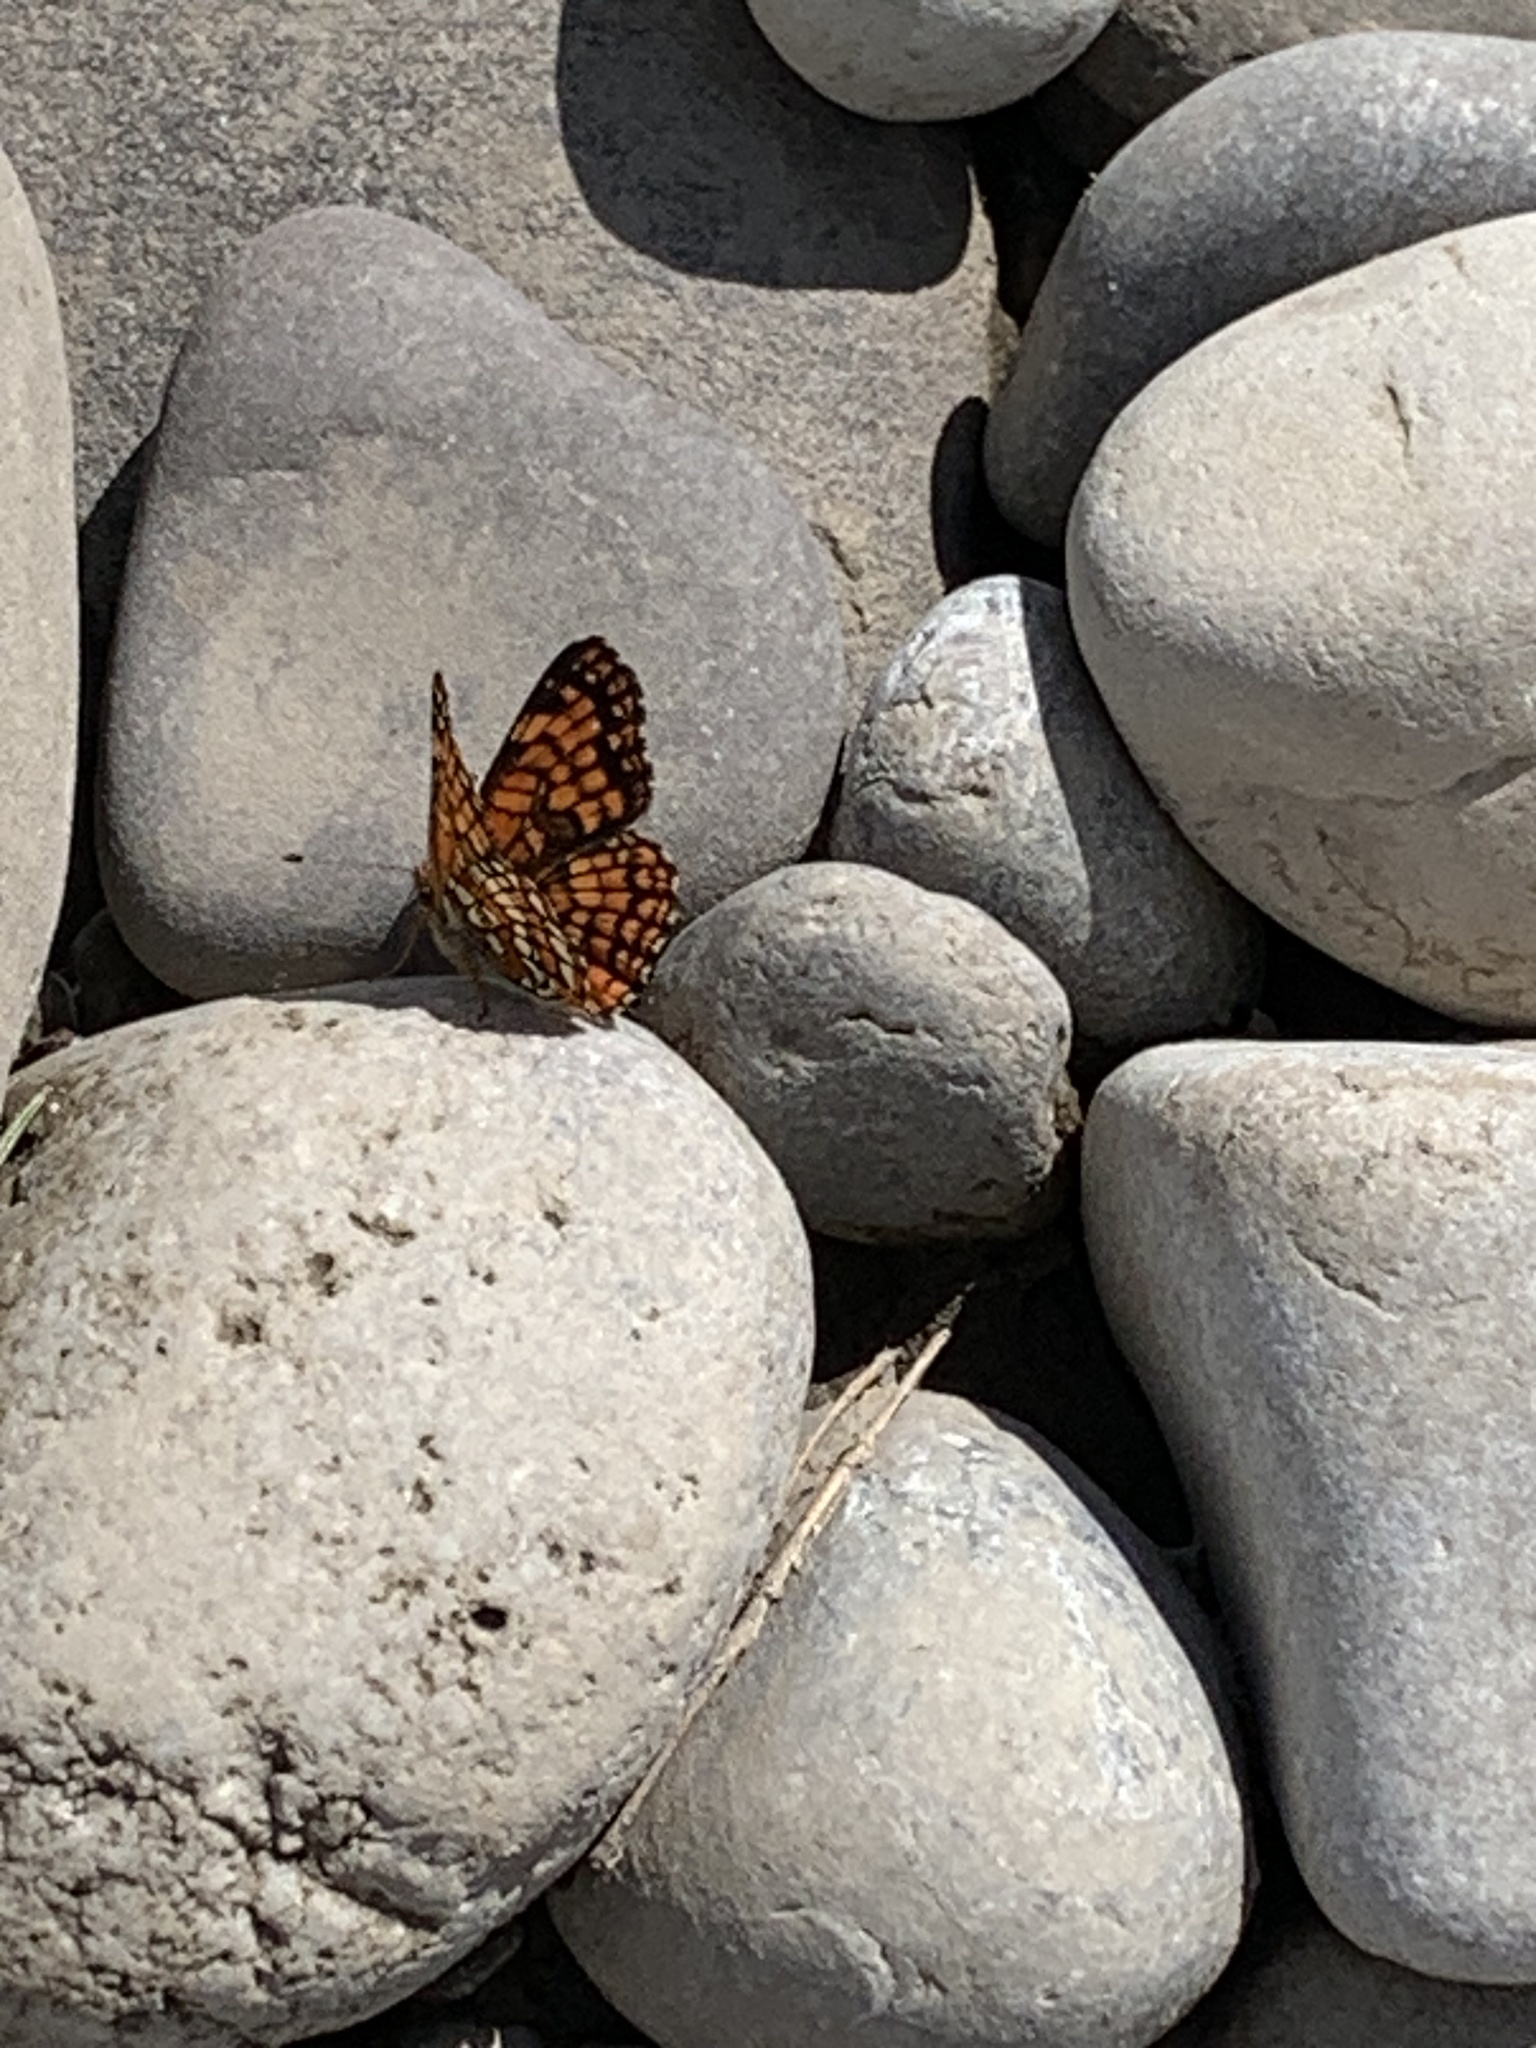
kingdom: Animalia
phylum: Arthropoda
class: Insecta
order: Lepidoptera
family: Nymphalidae
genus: Chlosyne
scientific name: Chlosyne palla
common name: Northern checkerspot
